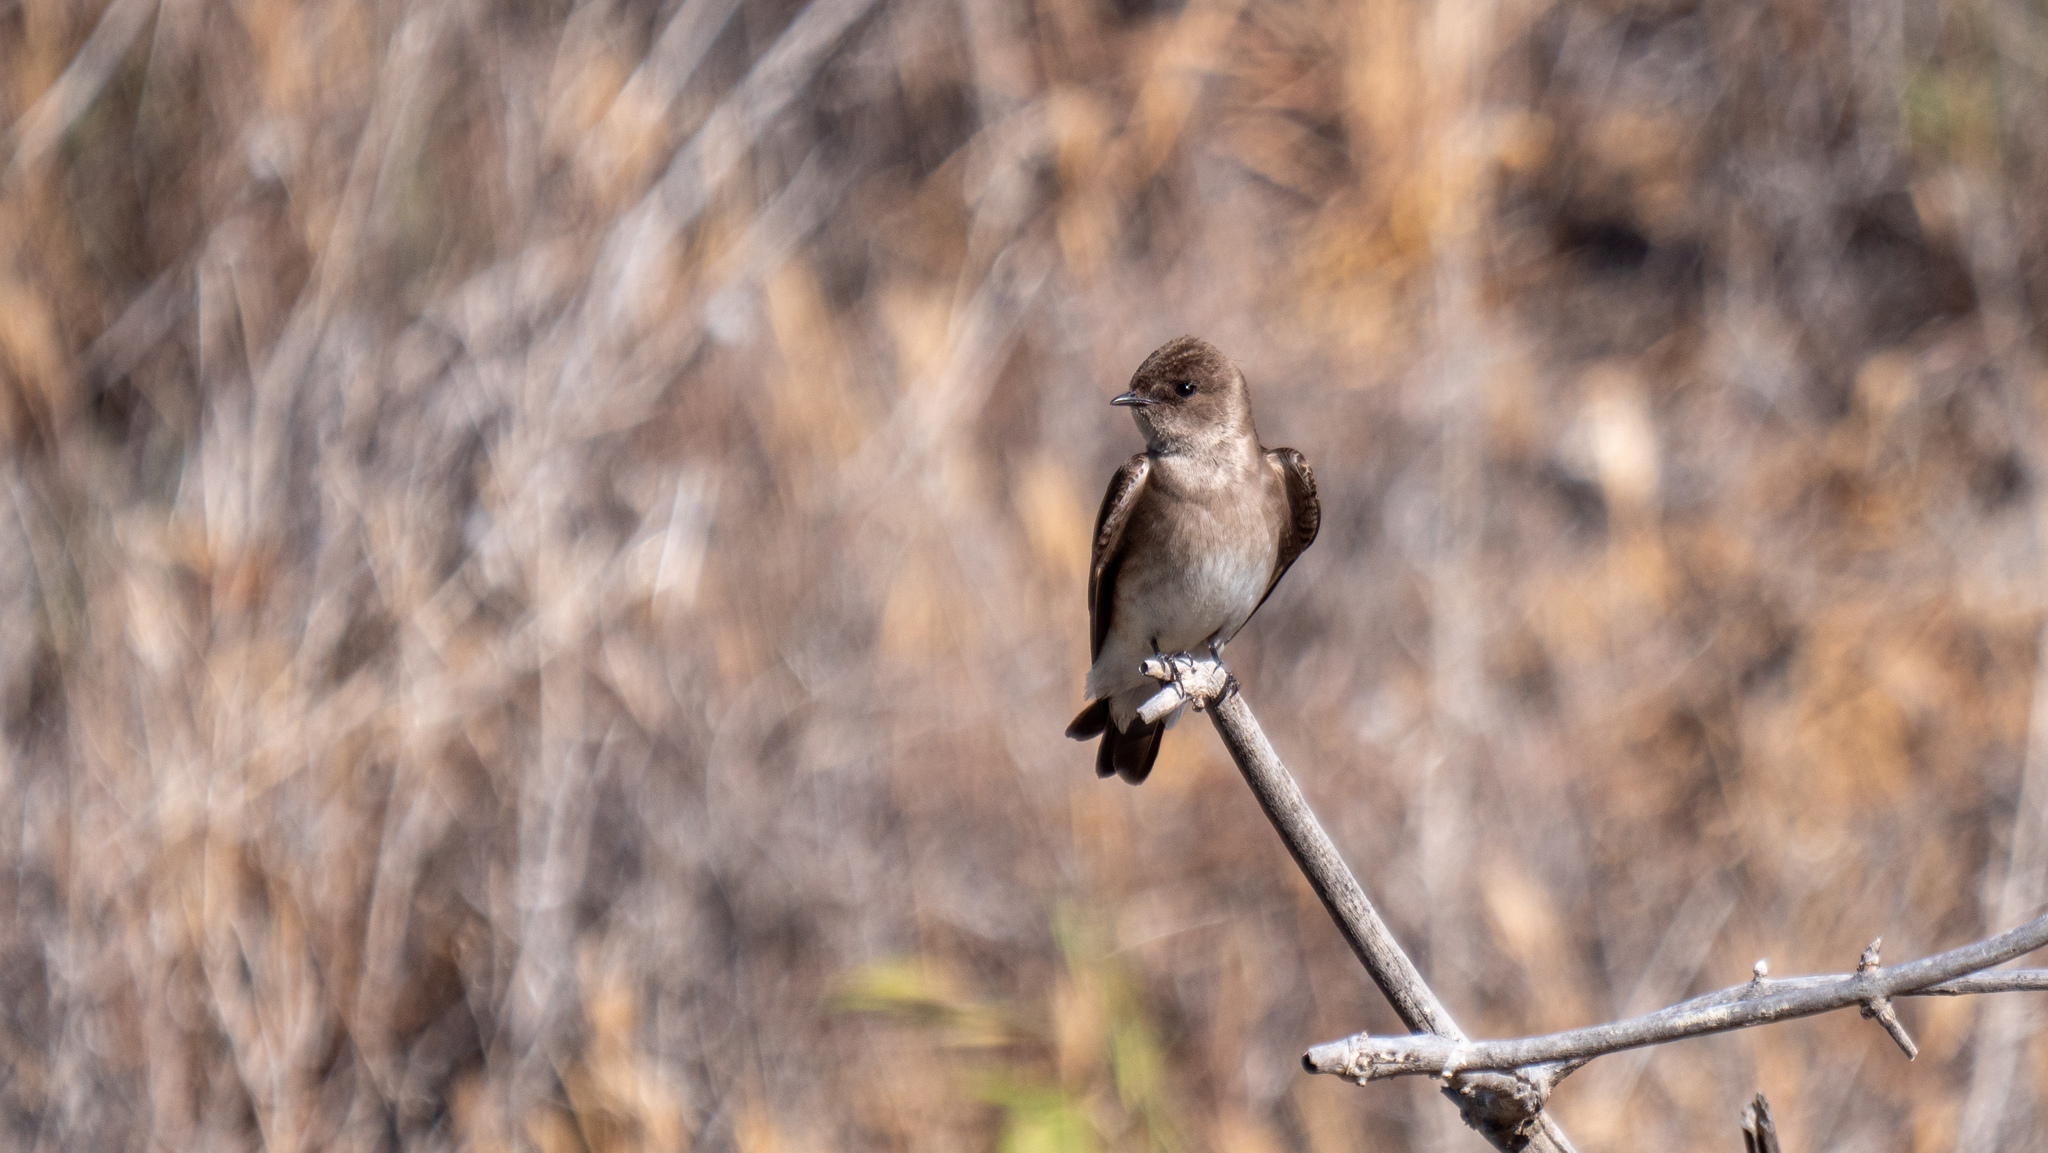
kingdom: Animalia
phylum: Chordata
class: Aves
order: Passeriformes
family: Hirundinidae
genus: Stelgidopteryx
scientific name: Stelgidopteryx serripennis
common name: Northern rough-winged swallow
